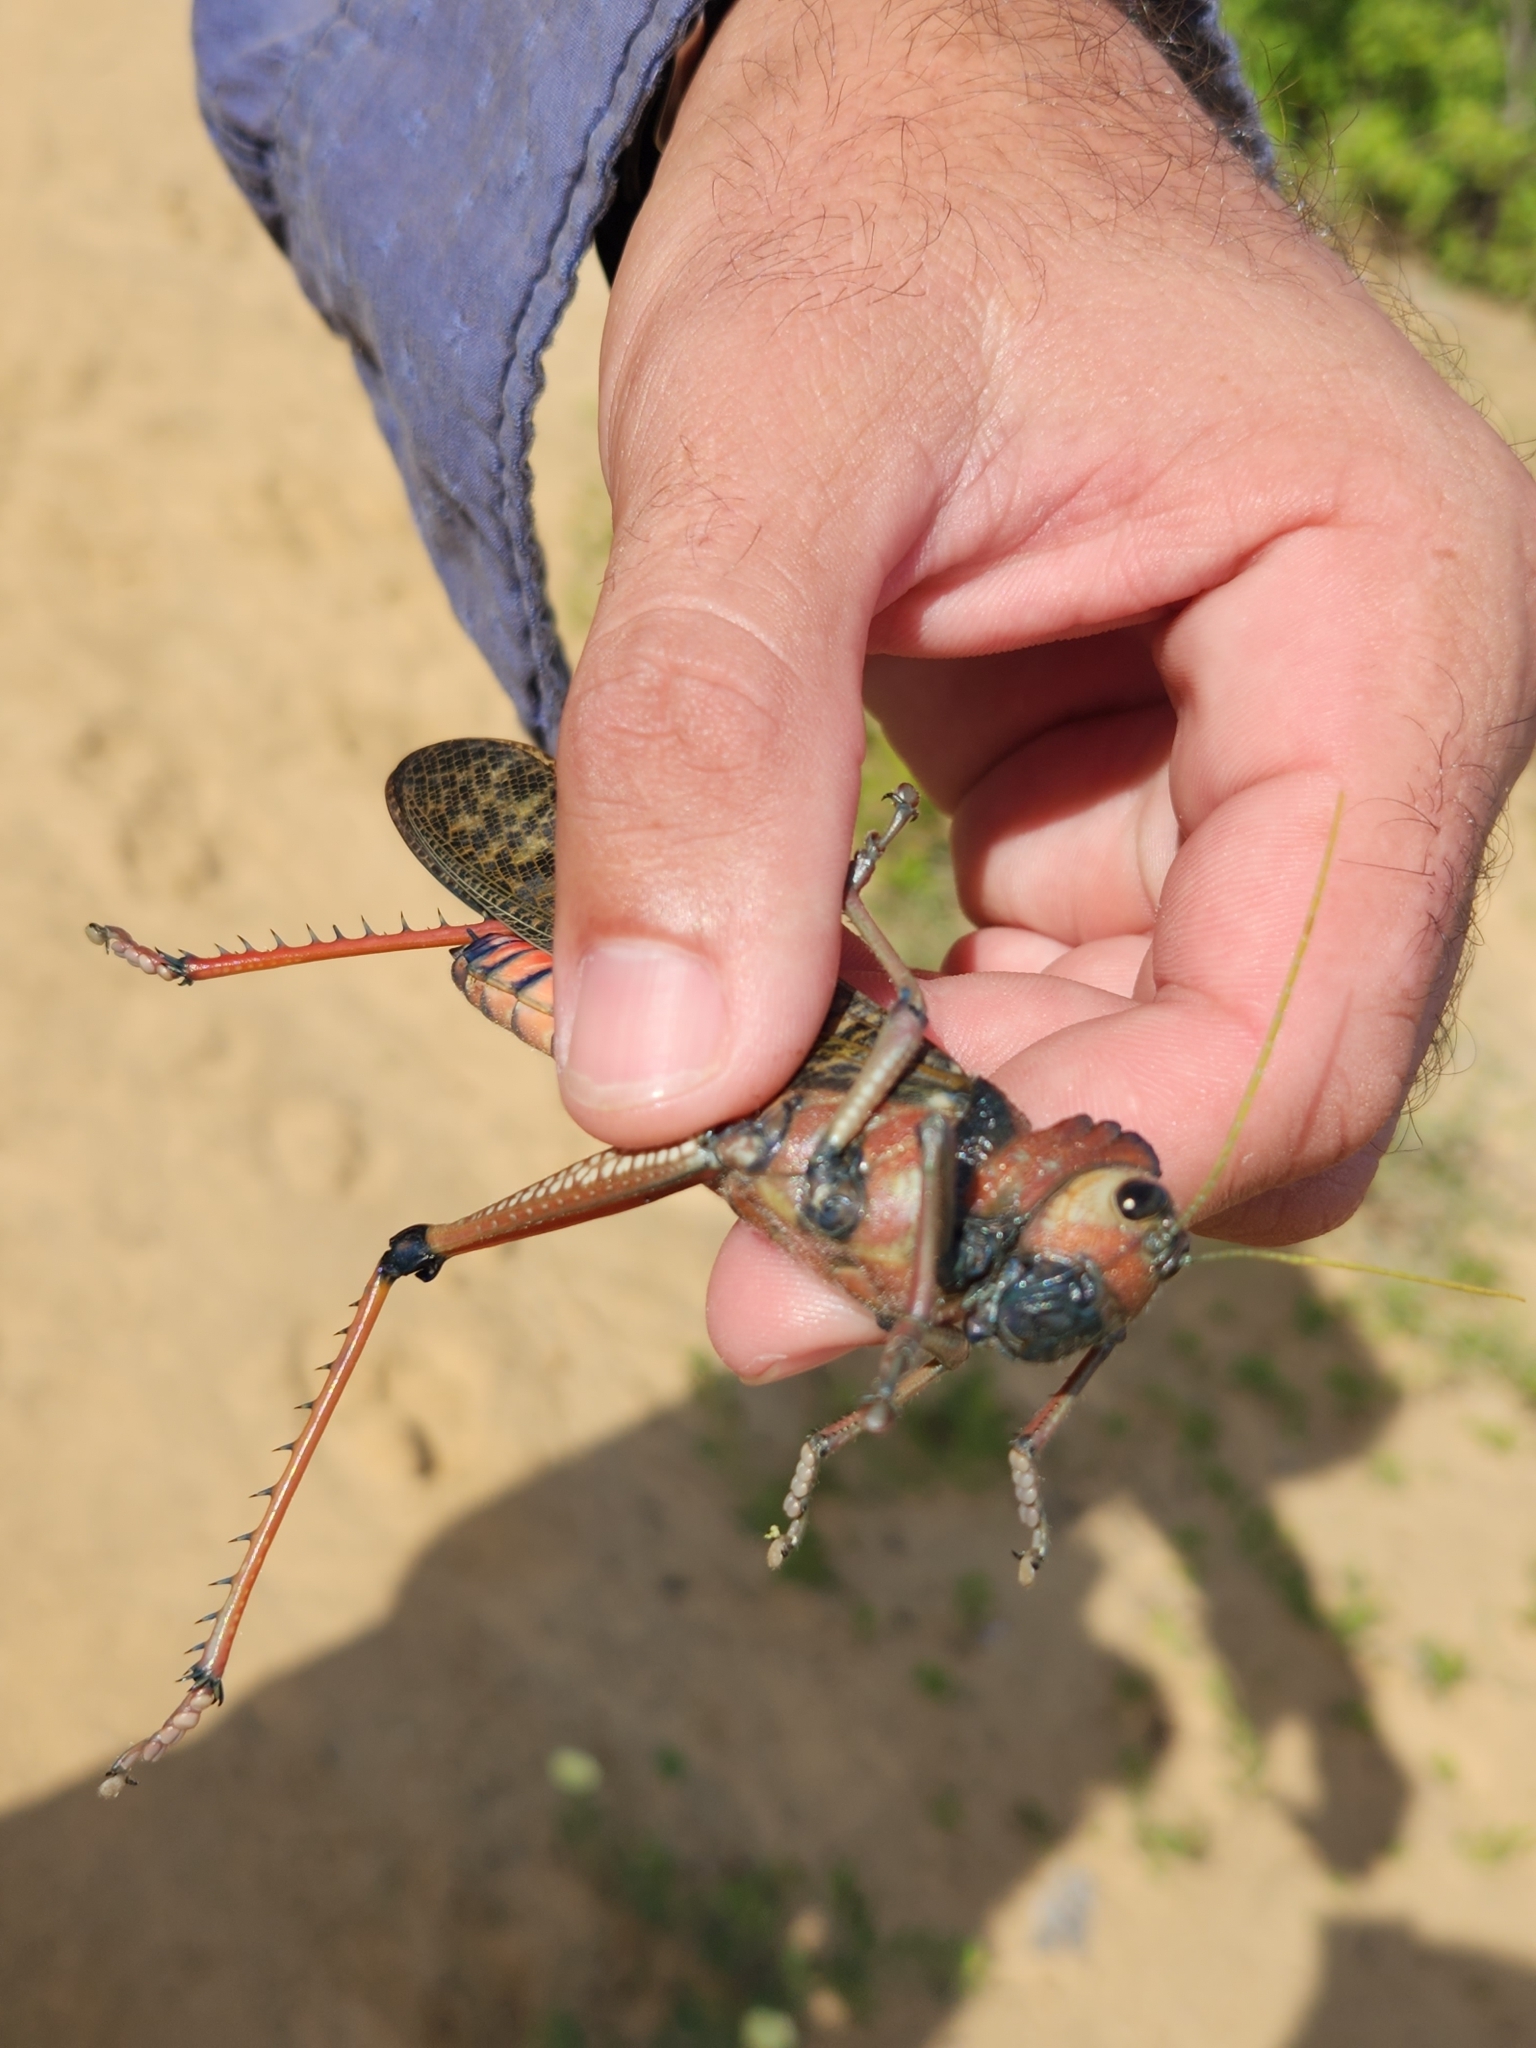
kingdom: Animalia
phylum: Arthropoda
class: Insecta
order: Orthoptera
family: Romaleidae
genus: Tropidacris
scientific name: Tropidacris collaris
